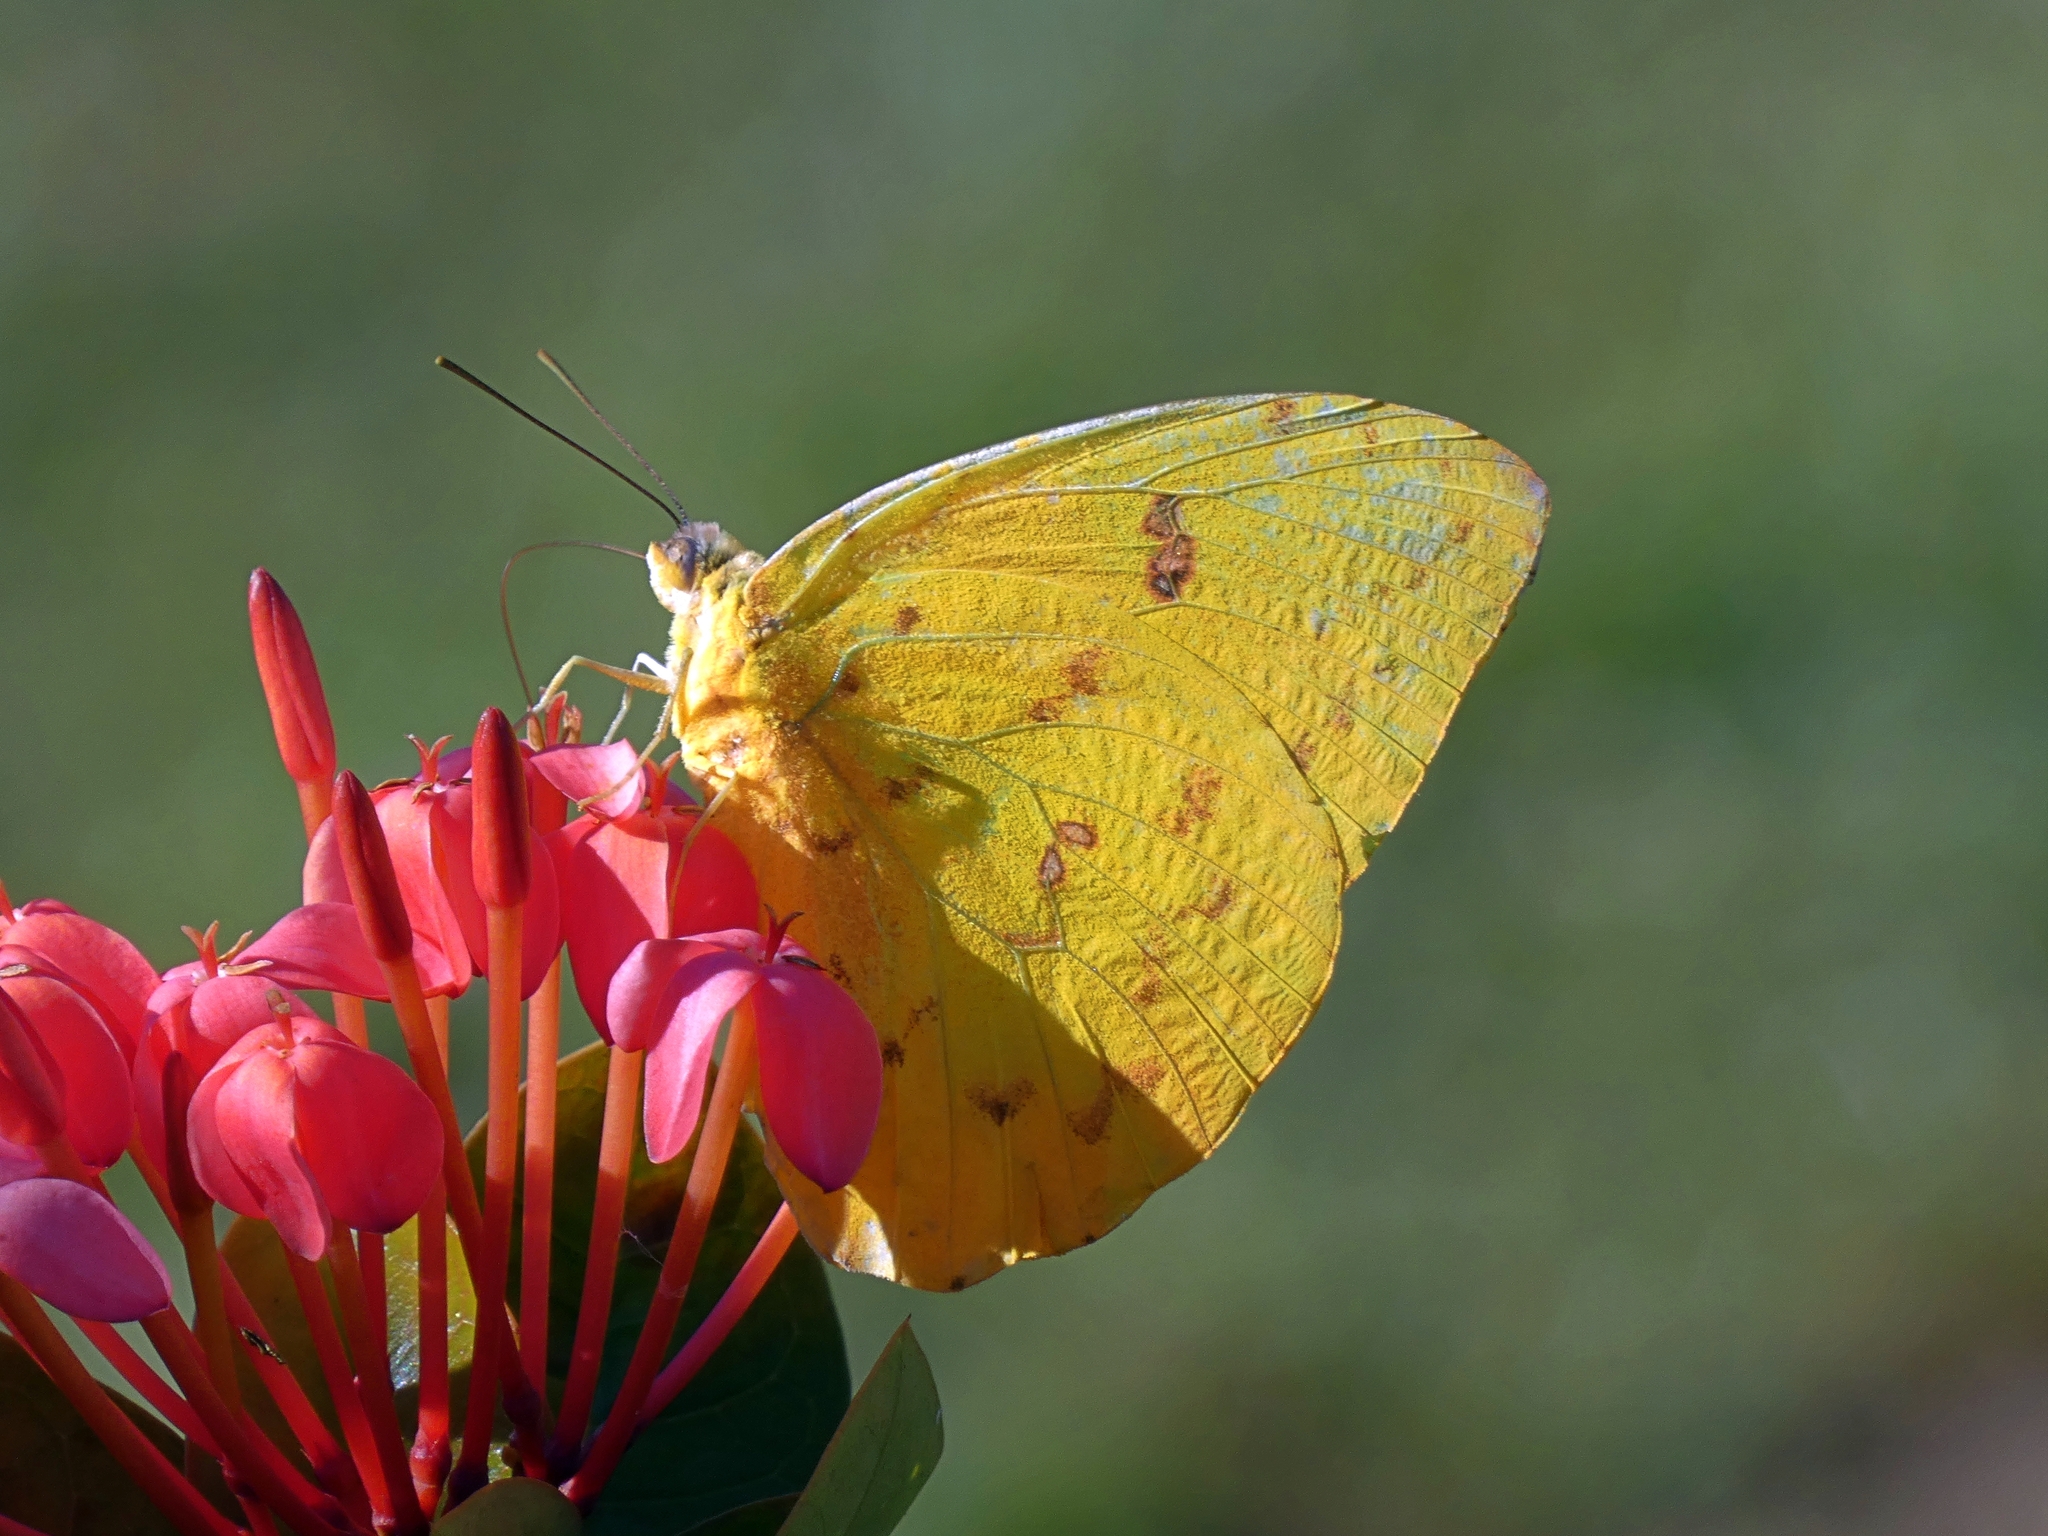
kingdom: Animalia
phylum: Arthropoda
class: Insecta
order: Lepidoptera
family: Pieridae
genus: Phoebis
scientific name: Phoebis philea
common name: Orange-barred giant sulphur
